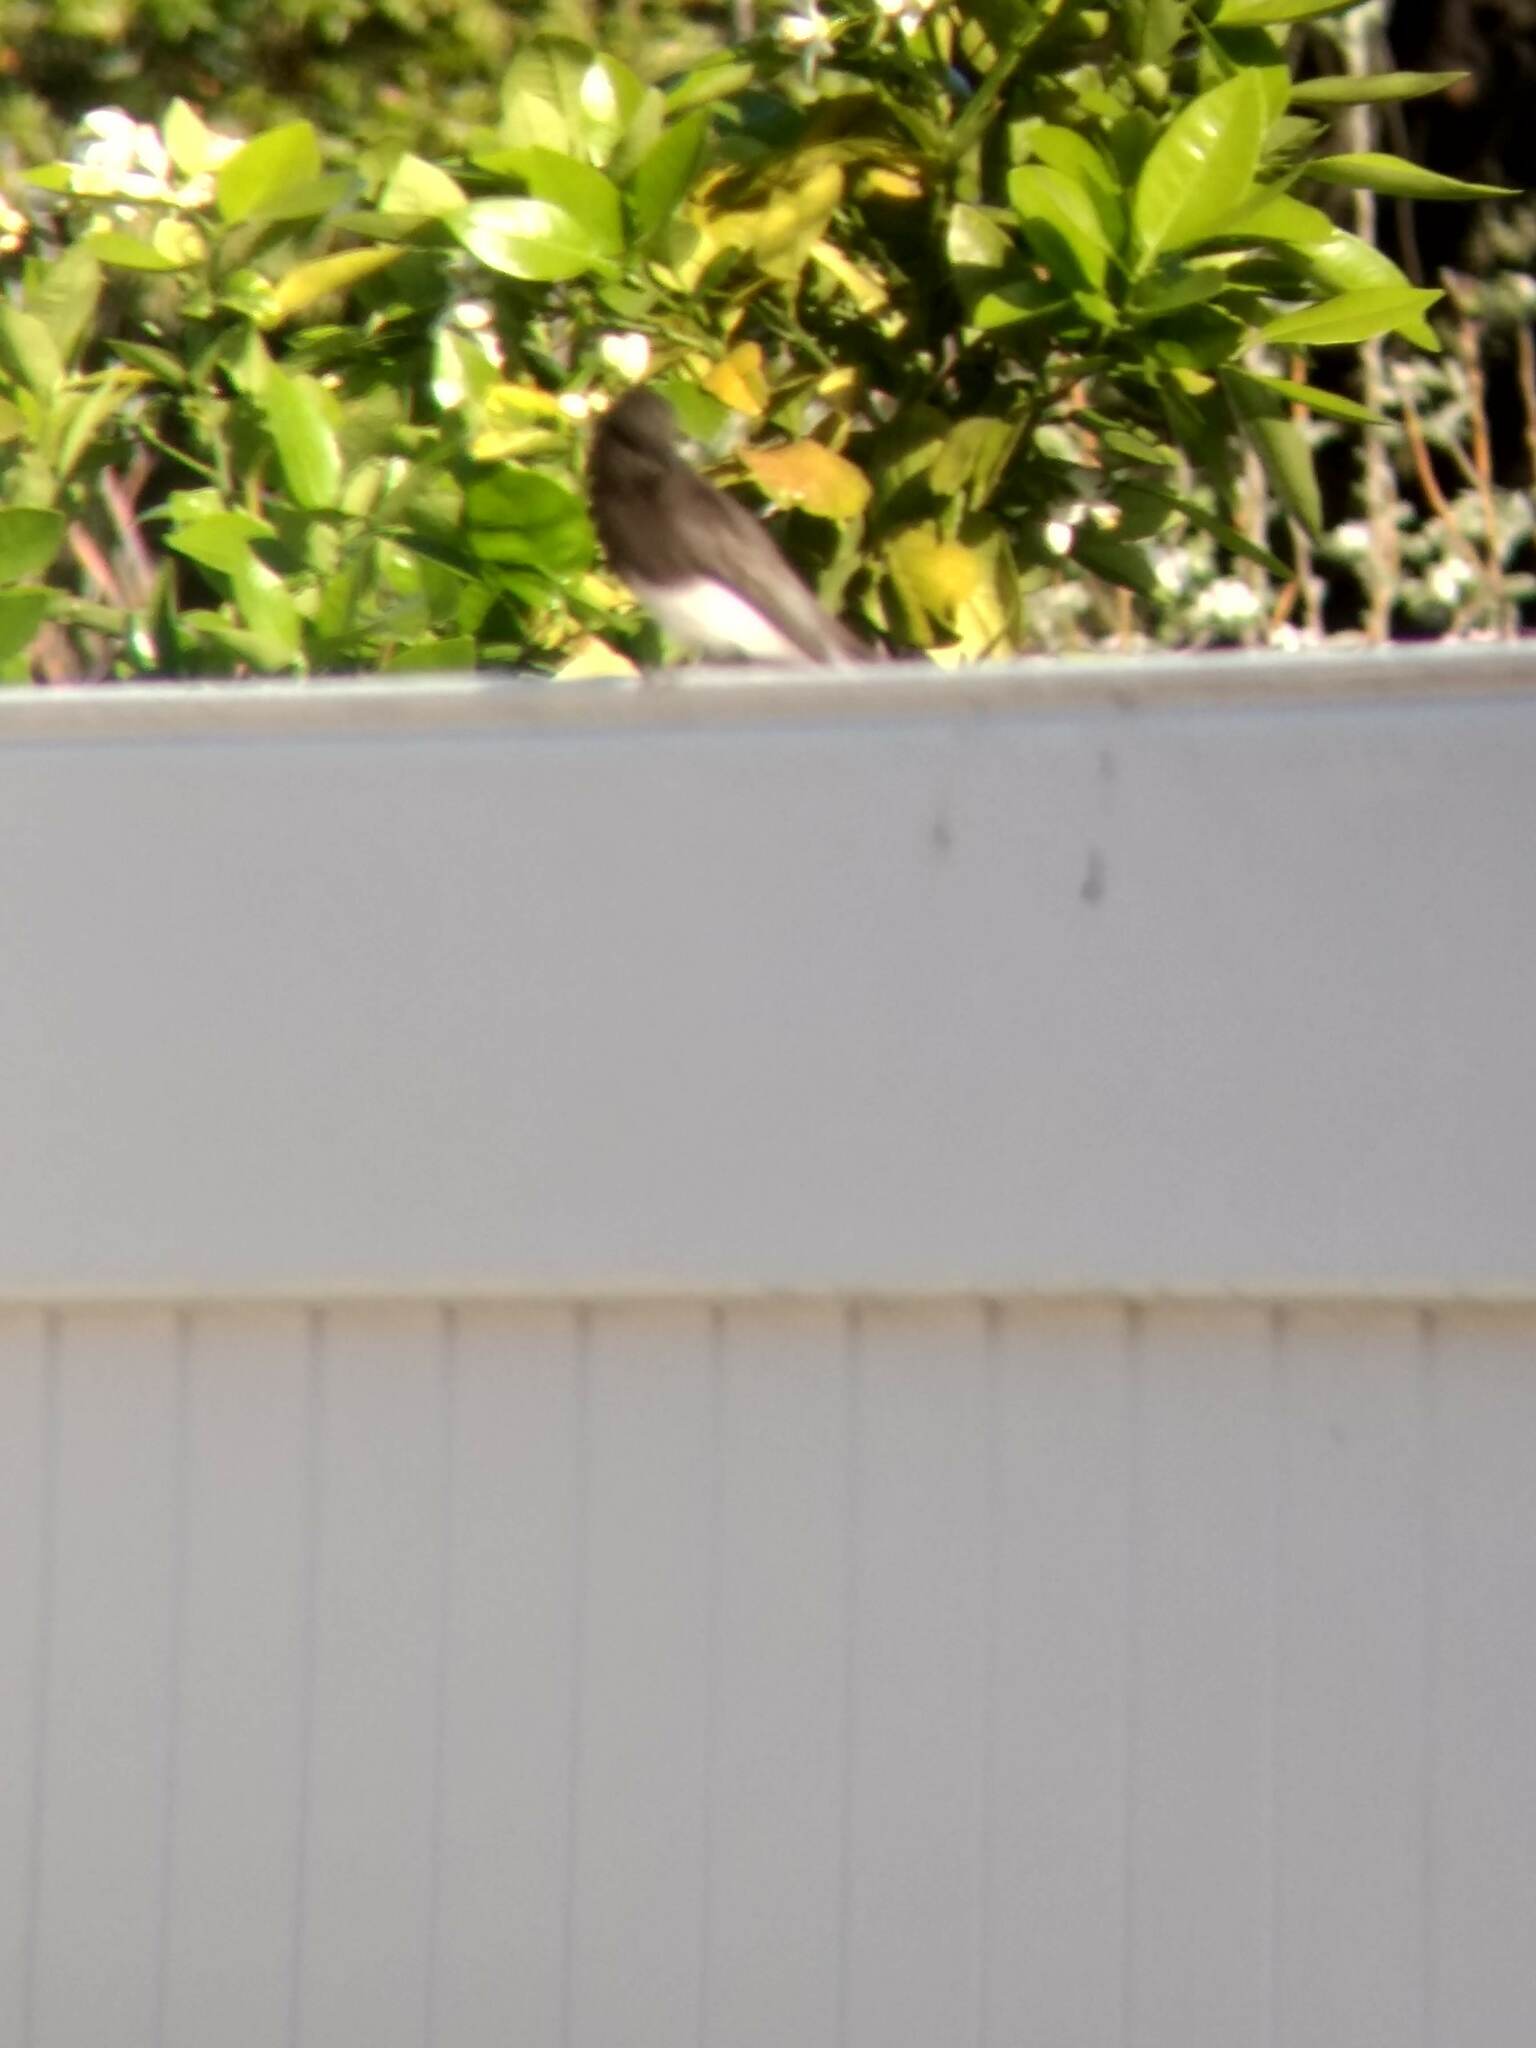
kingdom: Animalia
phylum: Chordata
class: Aves
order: Passeriformes
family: Tyrannidae
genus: Sayornis
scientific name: Sayornis nigricans
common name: Black phoebe
